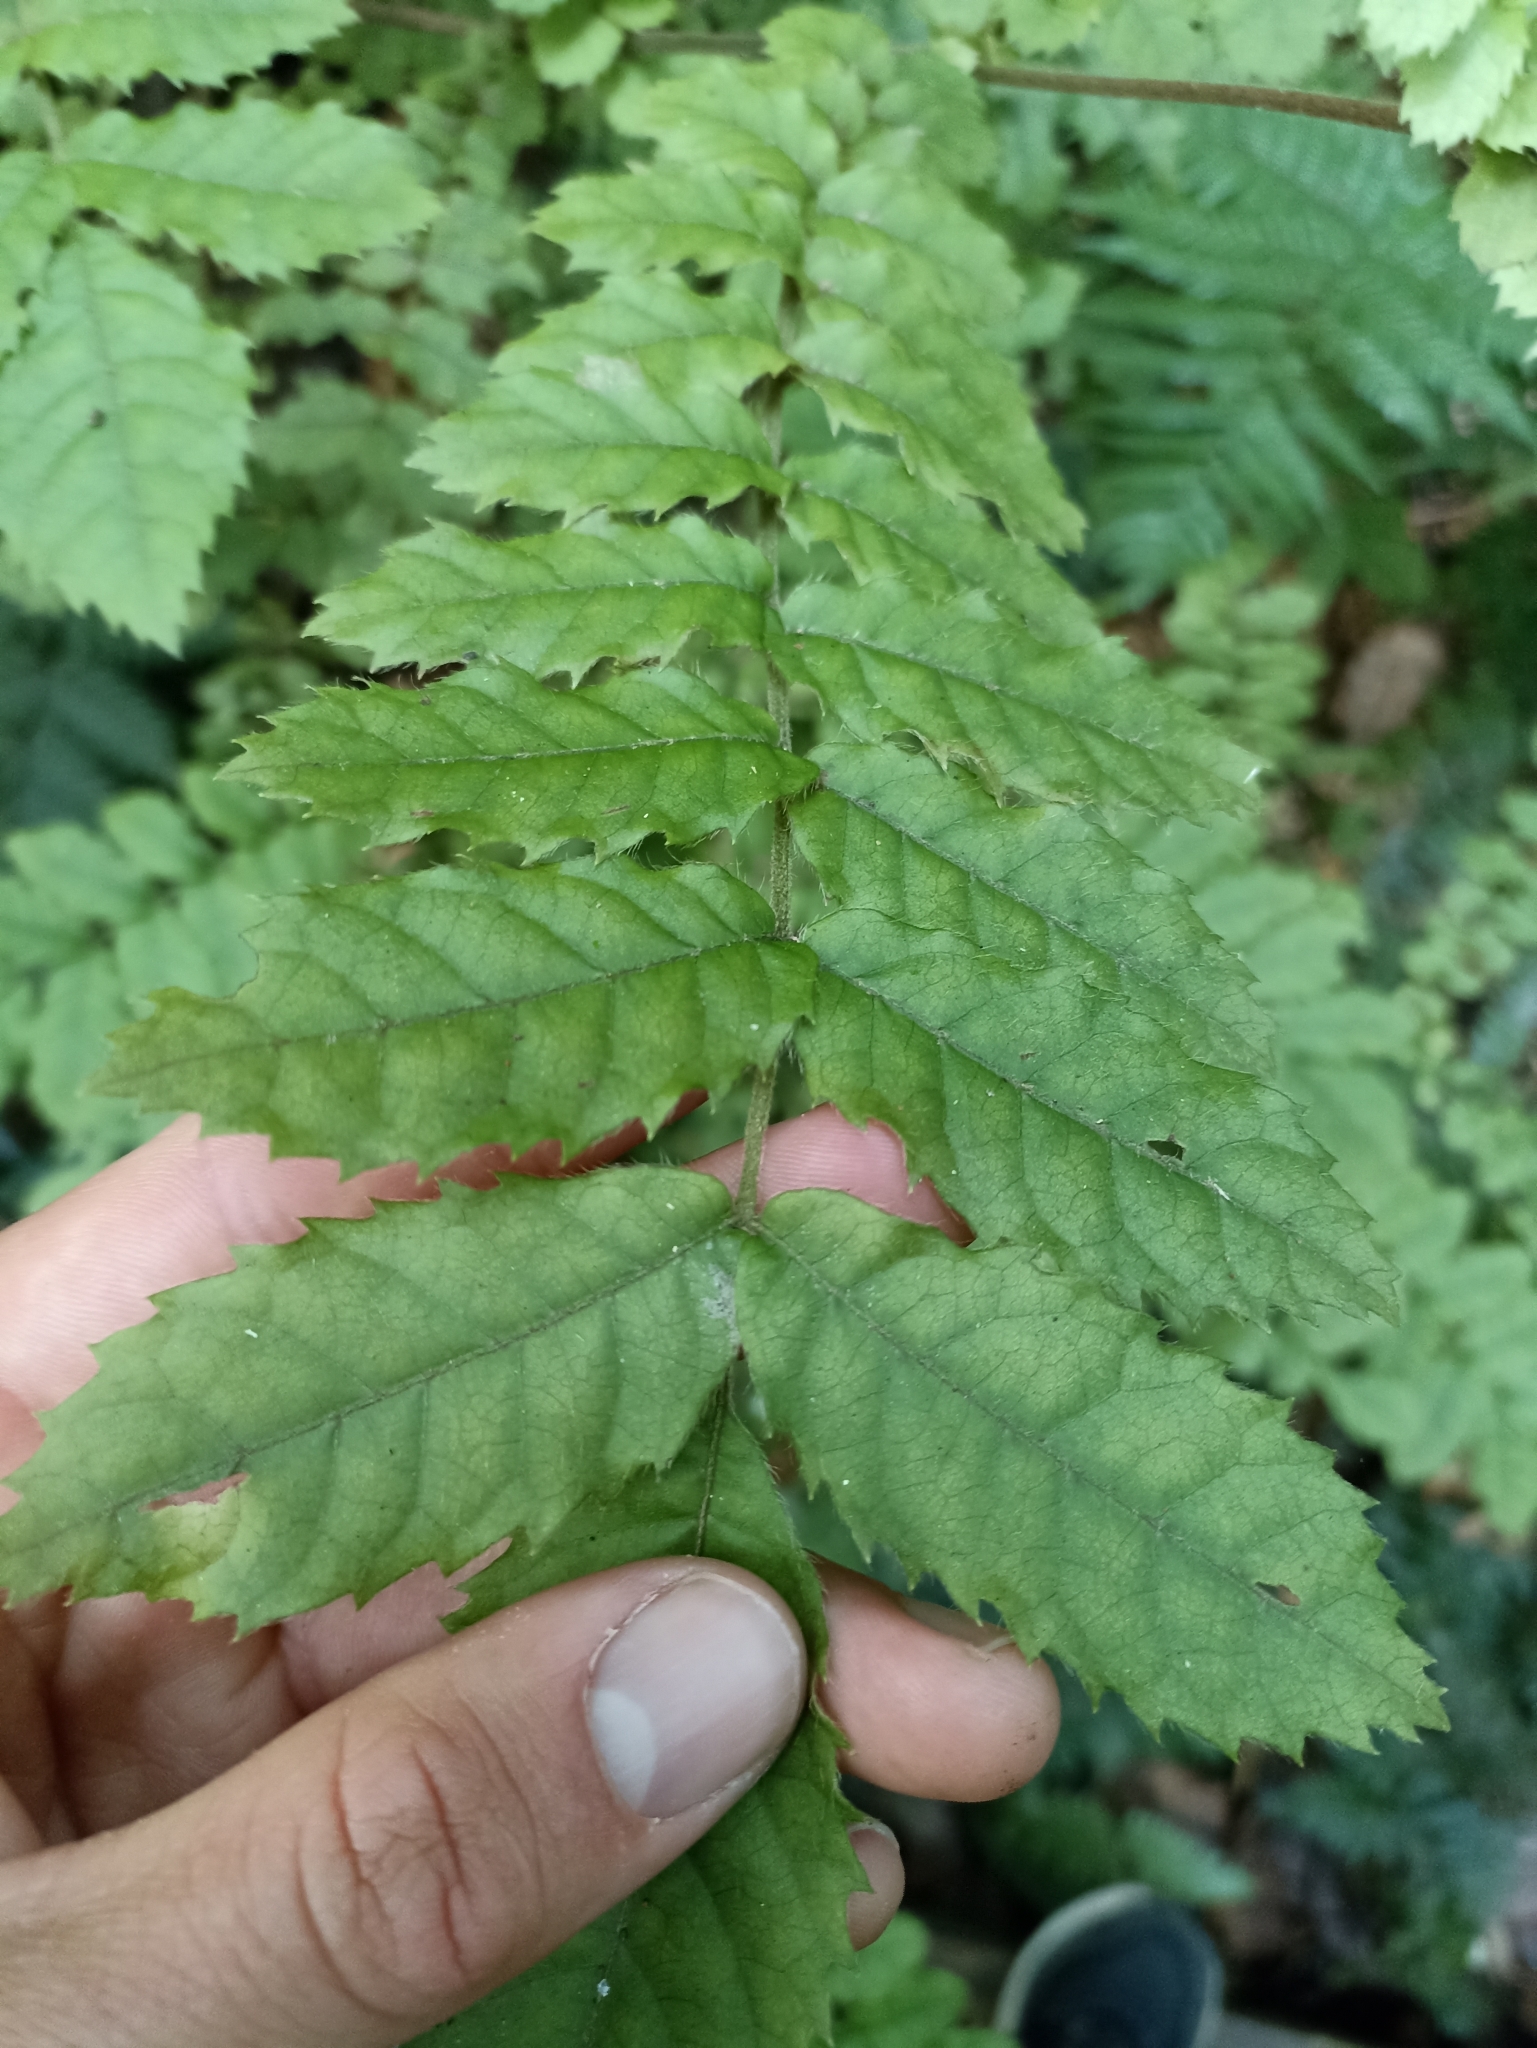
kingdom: Plantae
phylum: Tracheophyta
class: Magnoliopsida
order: Oxalidales
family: Cunoniaceae
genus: Ackama
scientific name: Ackama rosifolia
